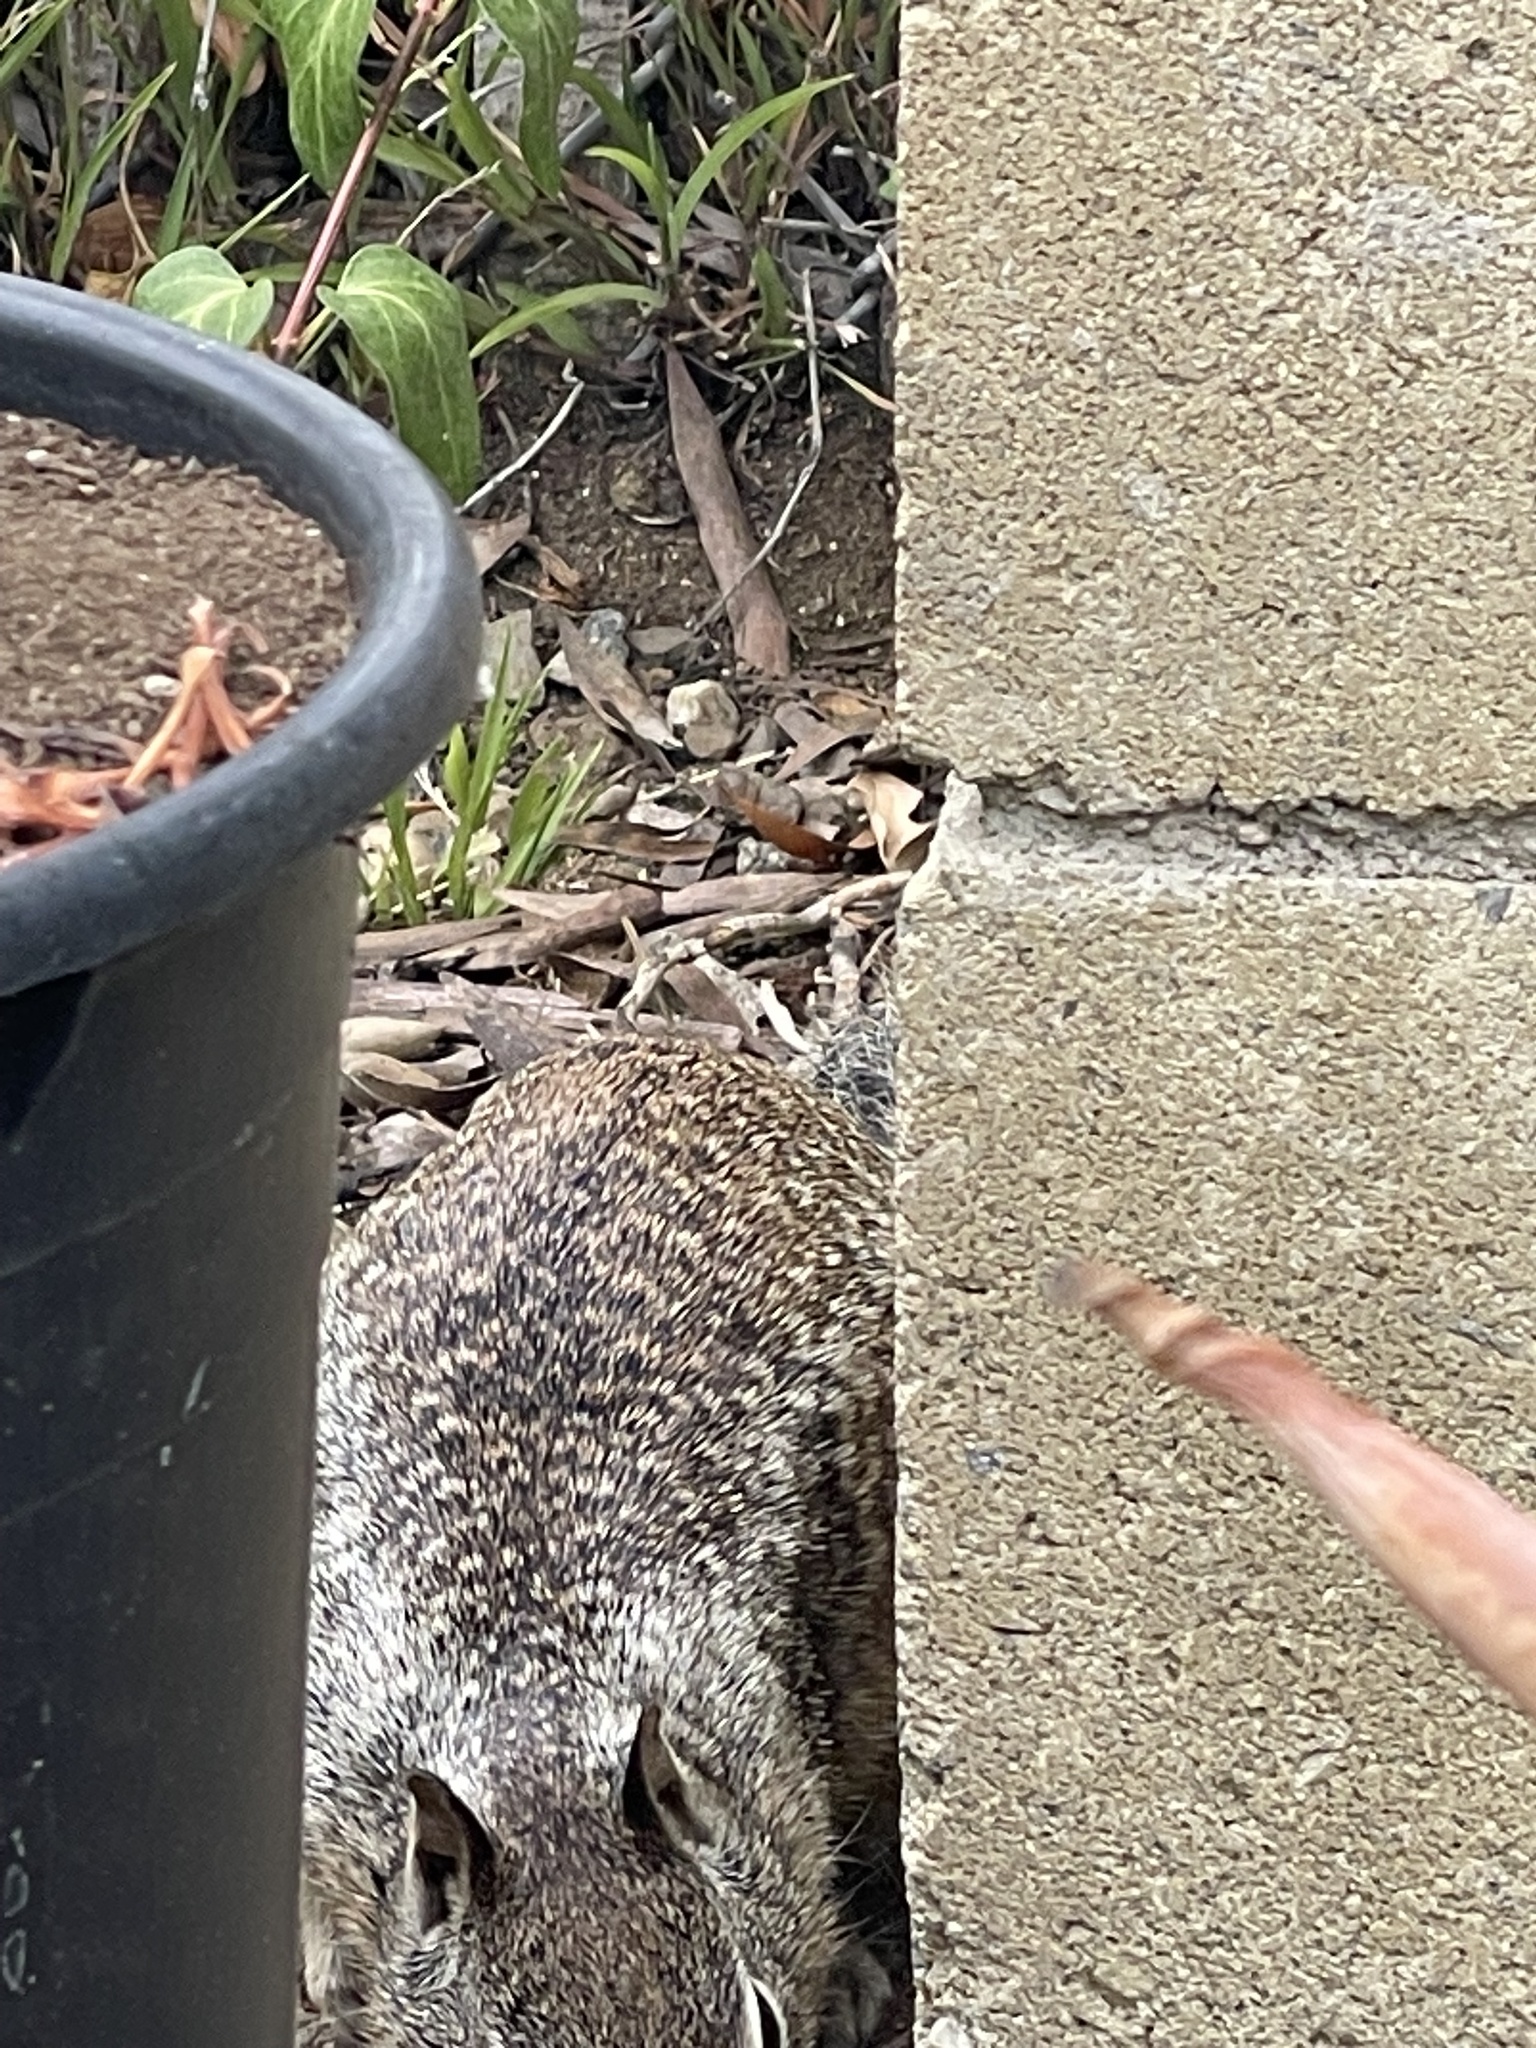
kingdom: Animalia
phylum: Chordata
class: Mammalia
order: Rodentia
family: Sciuridae
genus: Otospermophilus
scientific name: Otospermophilus beecheyi
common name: California ground squirrel
